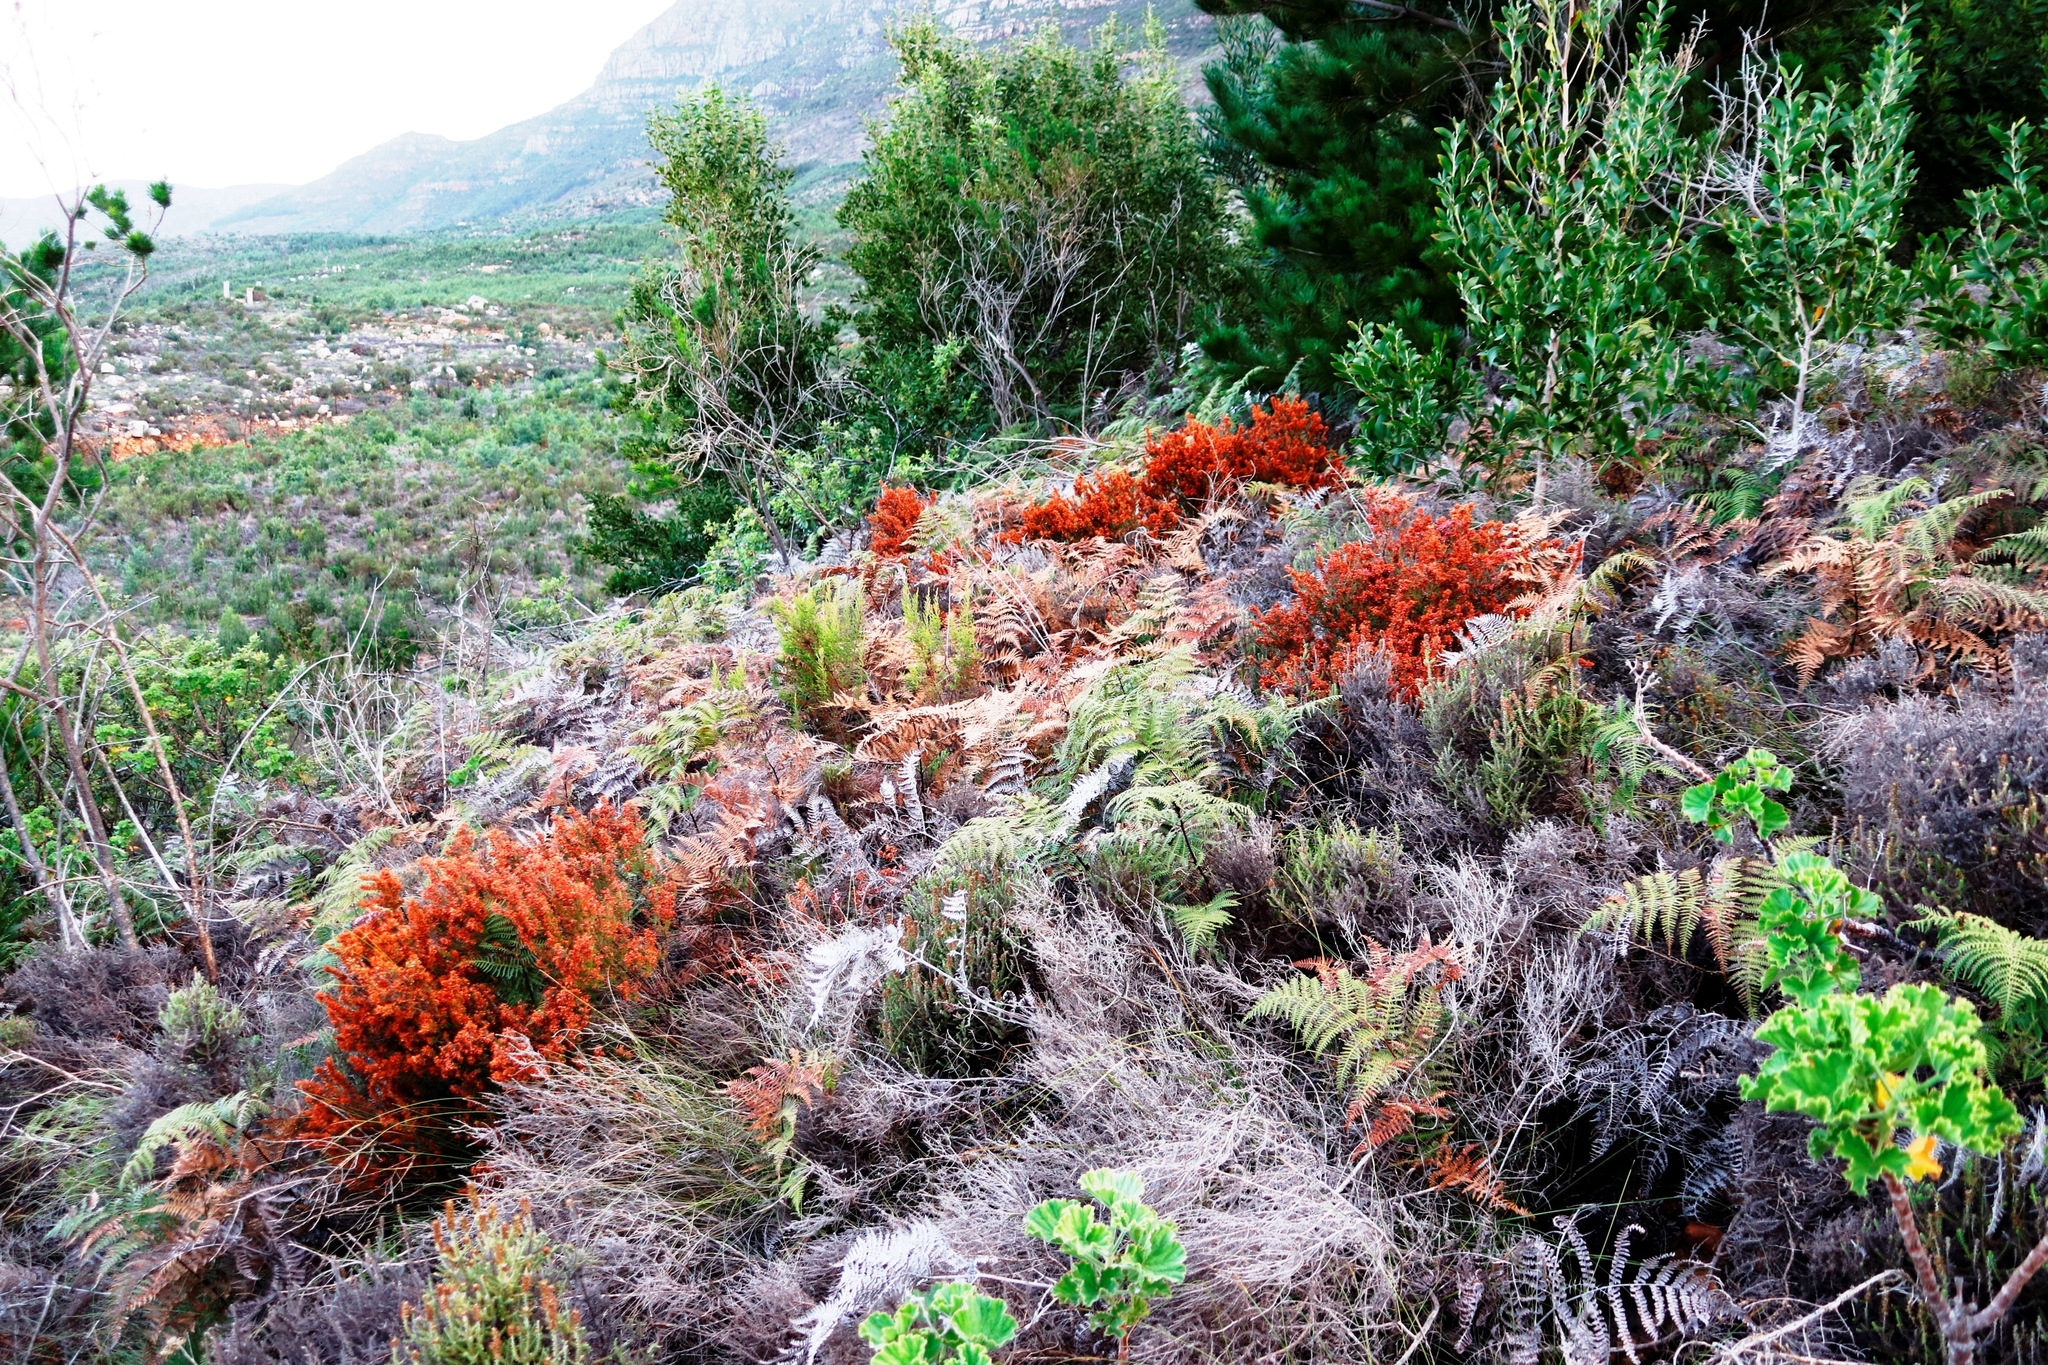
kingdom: Plantae
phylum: Tracheophyta
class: Magnoliopsida
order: Ericales
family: Ericaceae
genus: Erica
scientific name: Erica nudiflora
